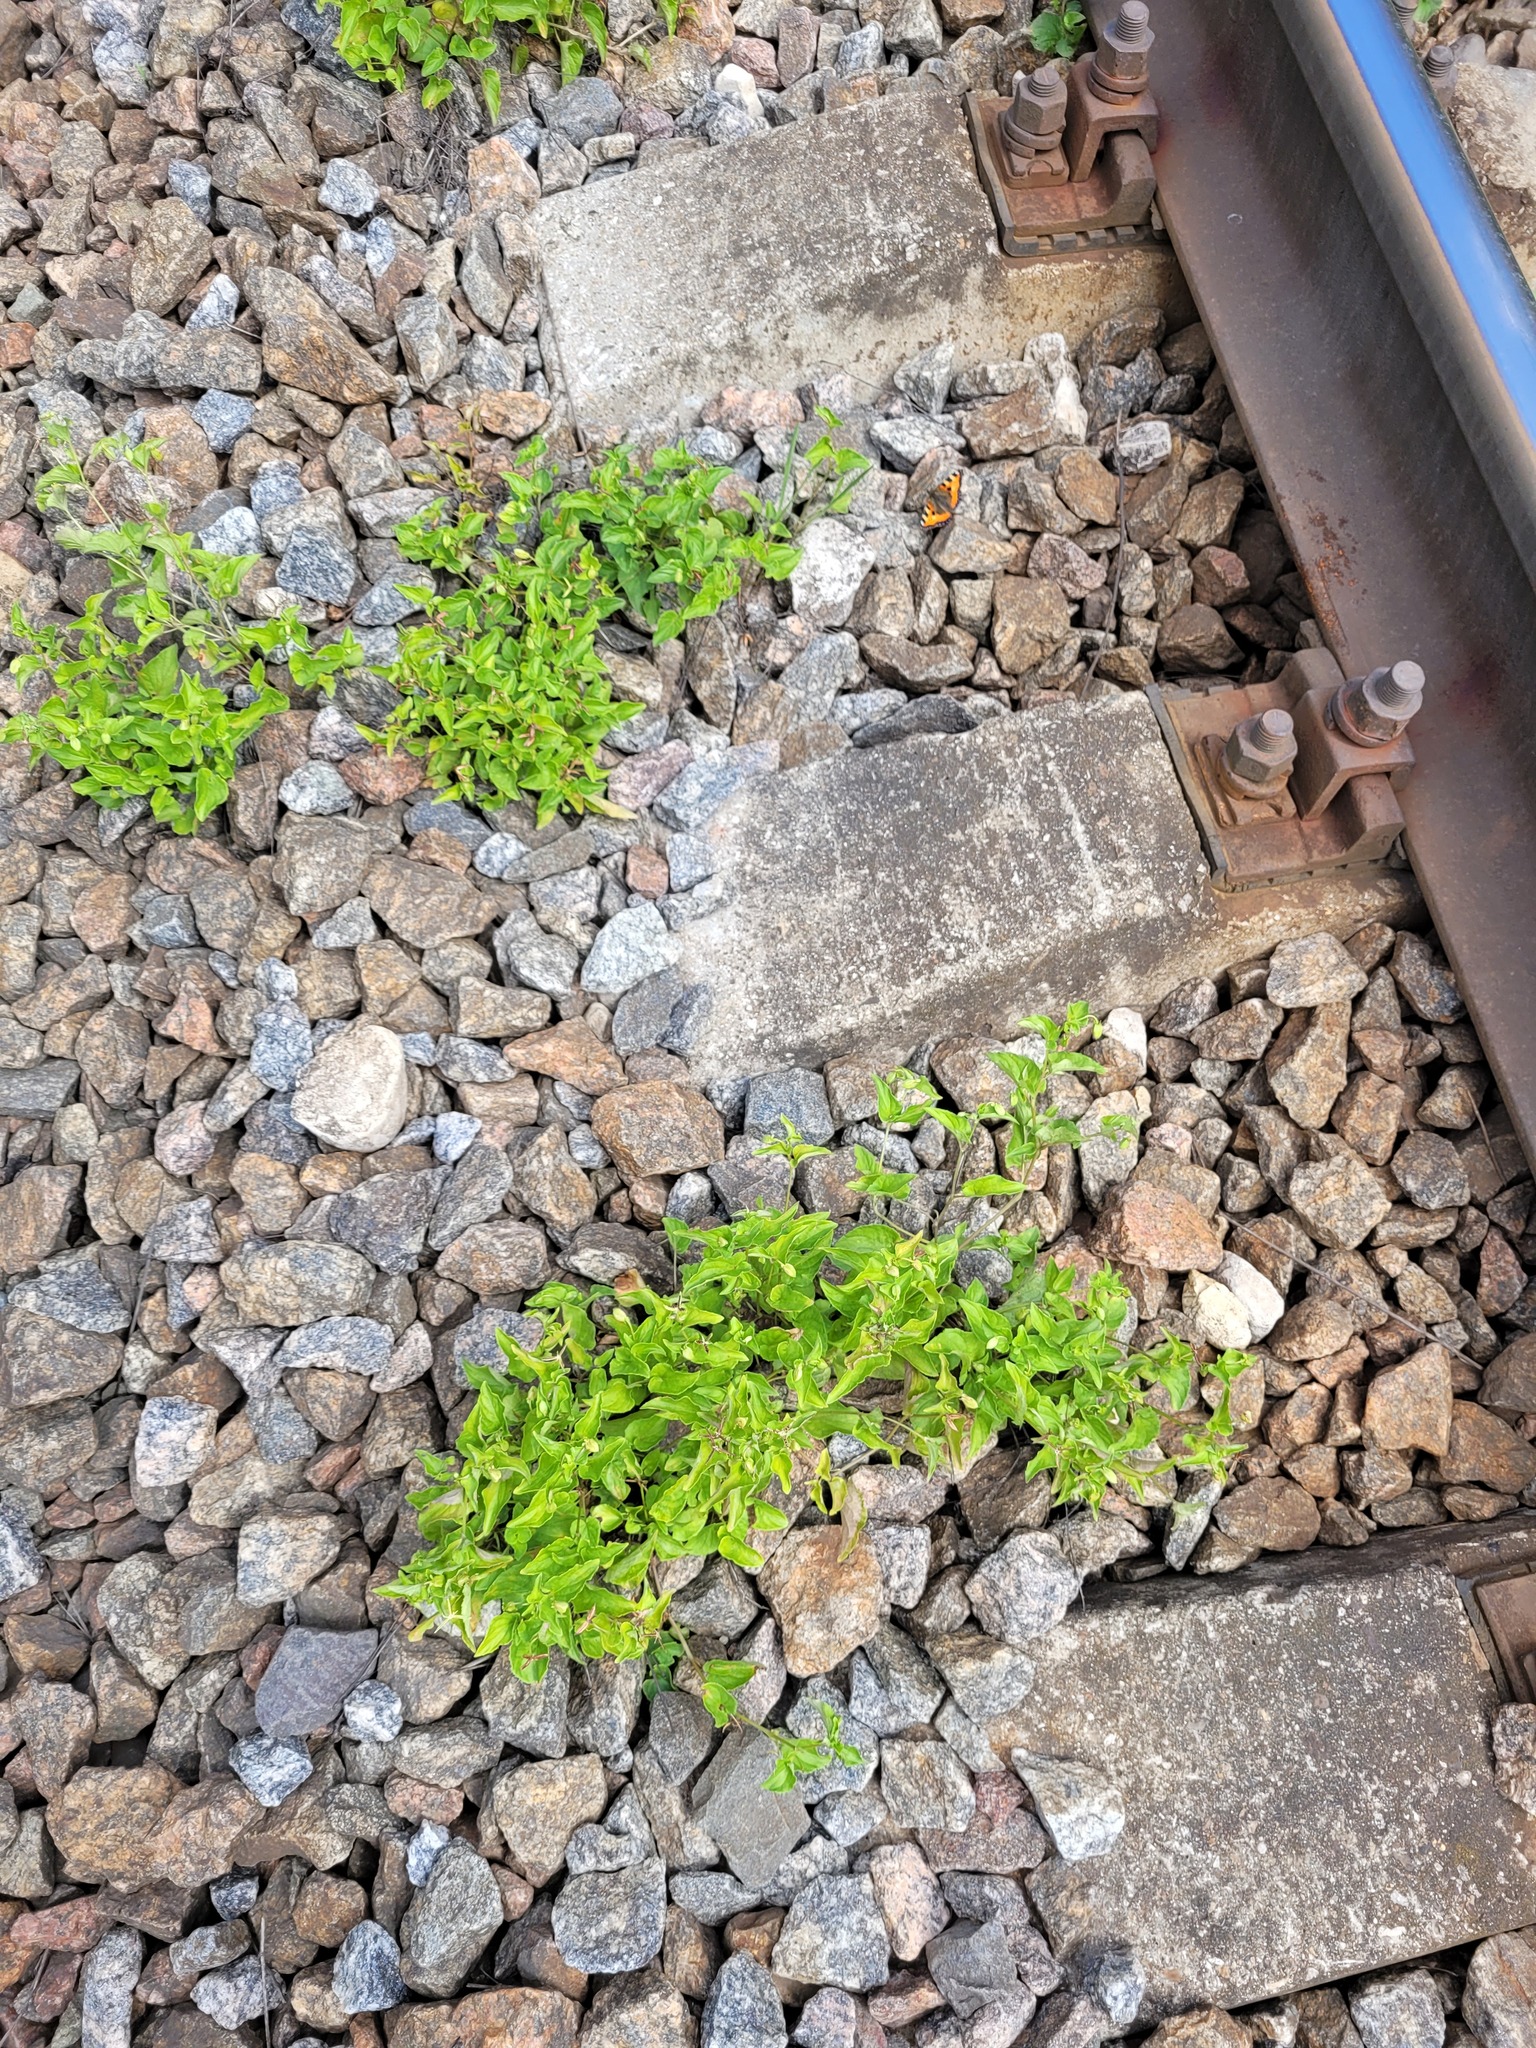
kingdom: Plantae
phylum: Tracheophyta
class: Magnoliopsida
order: Malpighiales
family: Violaceae
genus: Viola
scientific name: Viola canina
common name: Heath dog-violet
